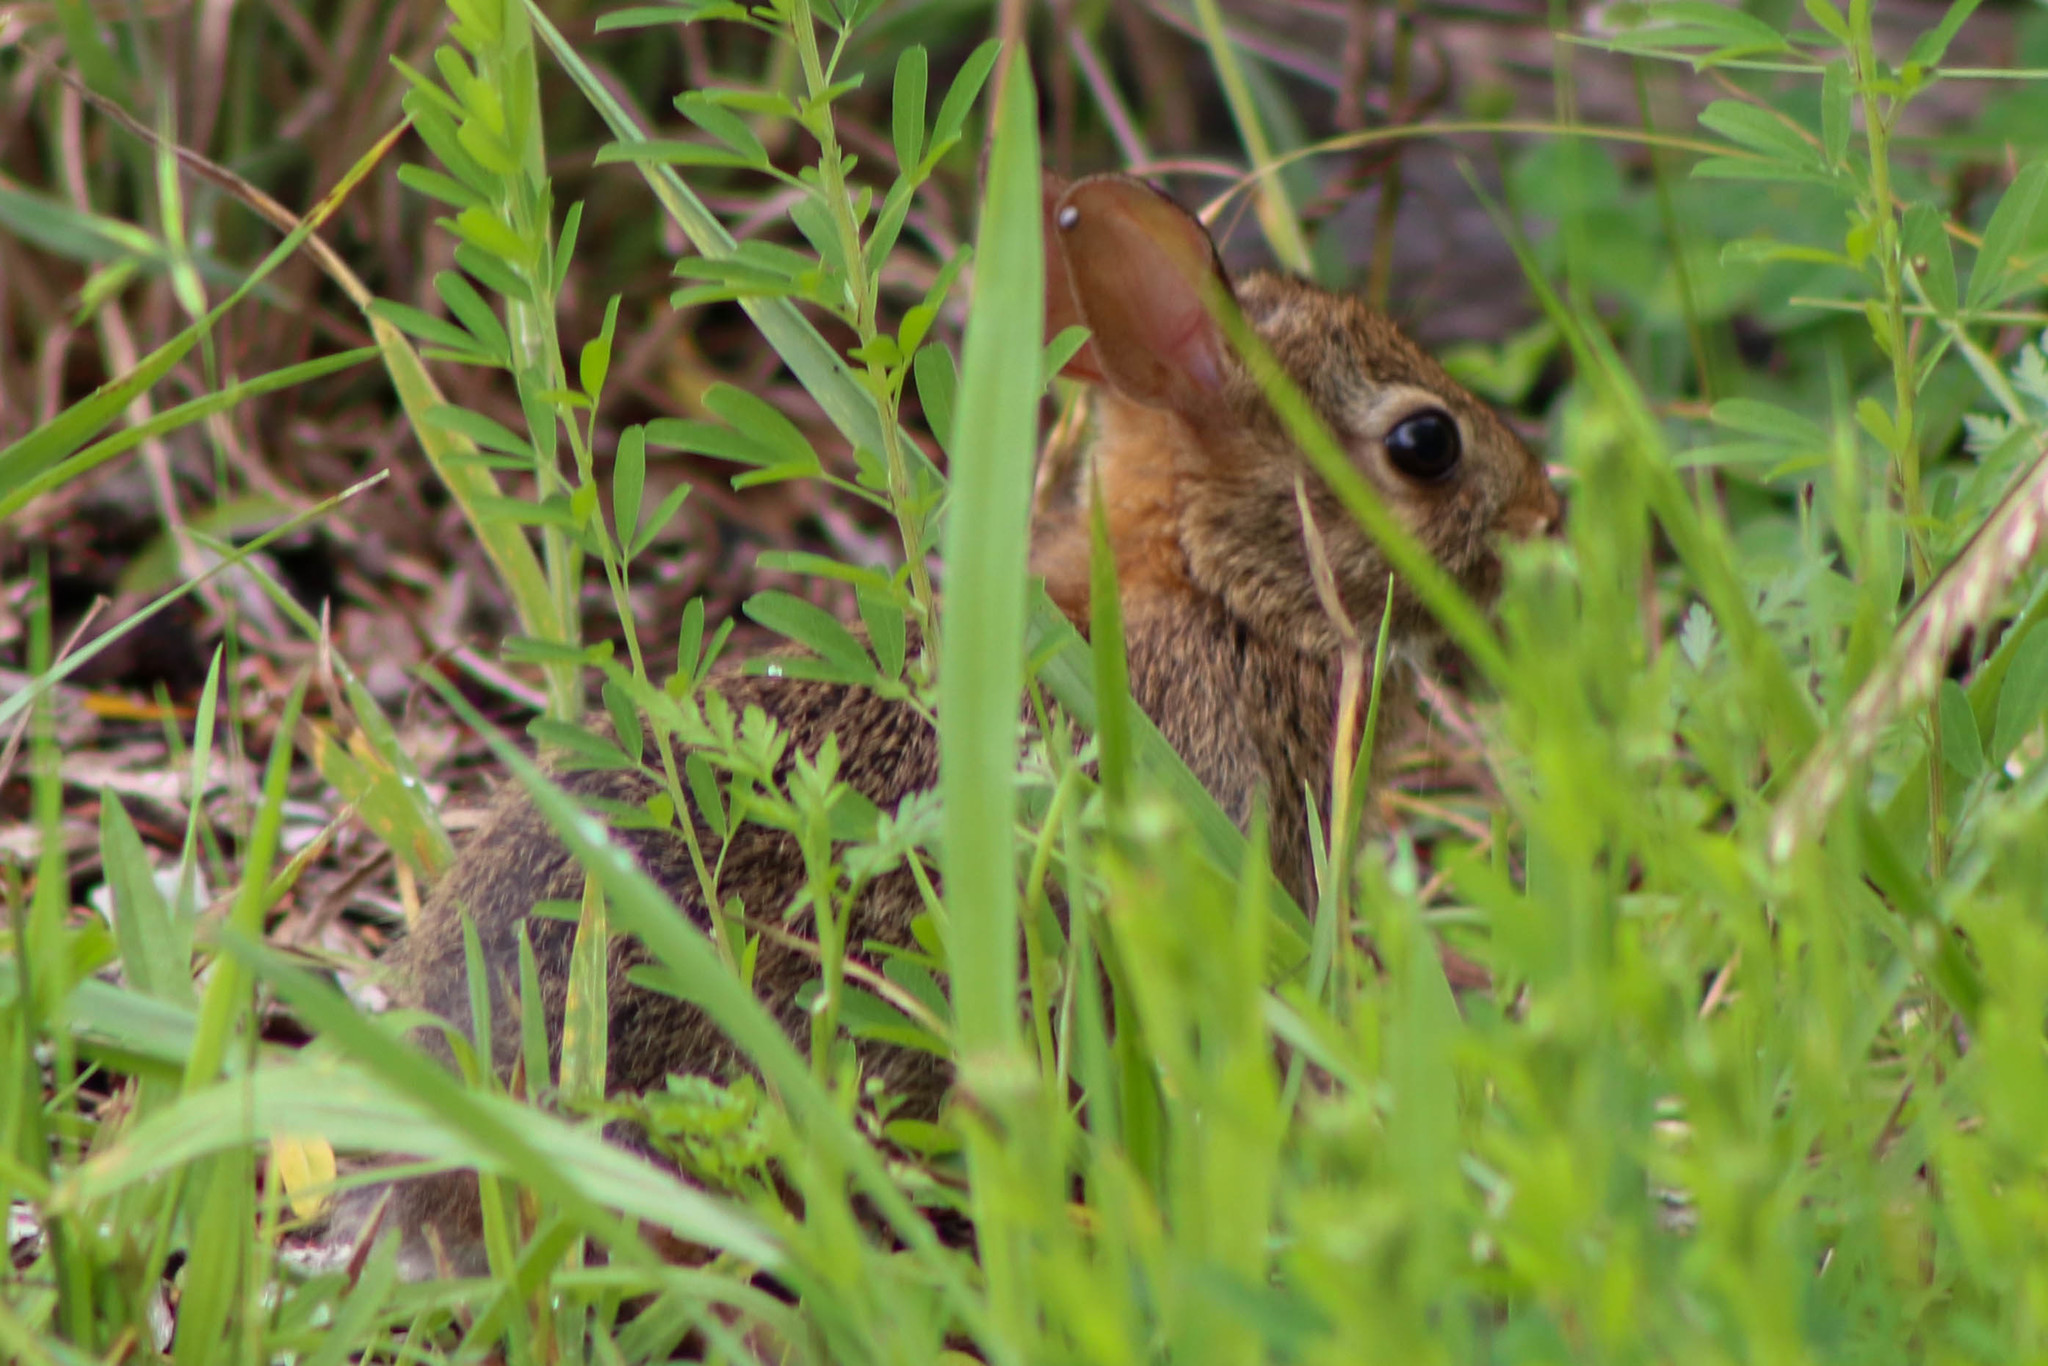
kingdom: Animalia
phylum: Chordata
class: Mammalia
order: Lagomorpha
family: Leporidae
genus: Sylvilagus
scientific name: Sylvilagus floridanus
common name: Eastern cottontail
